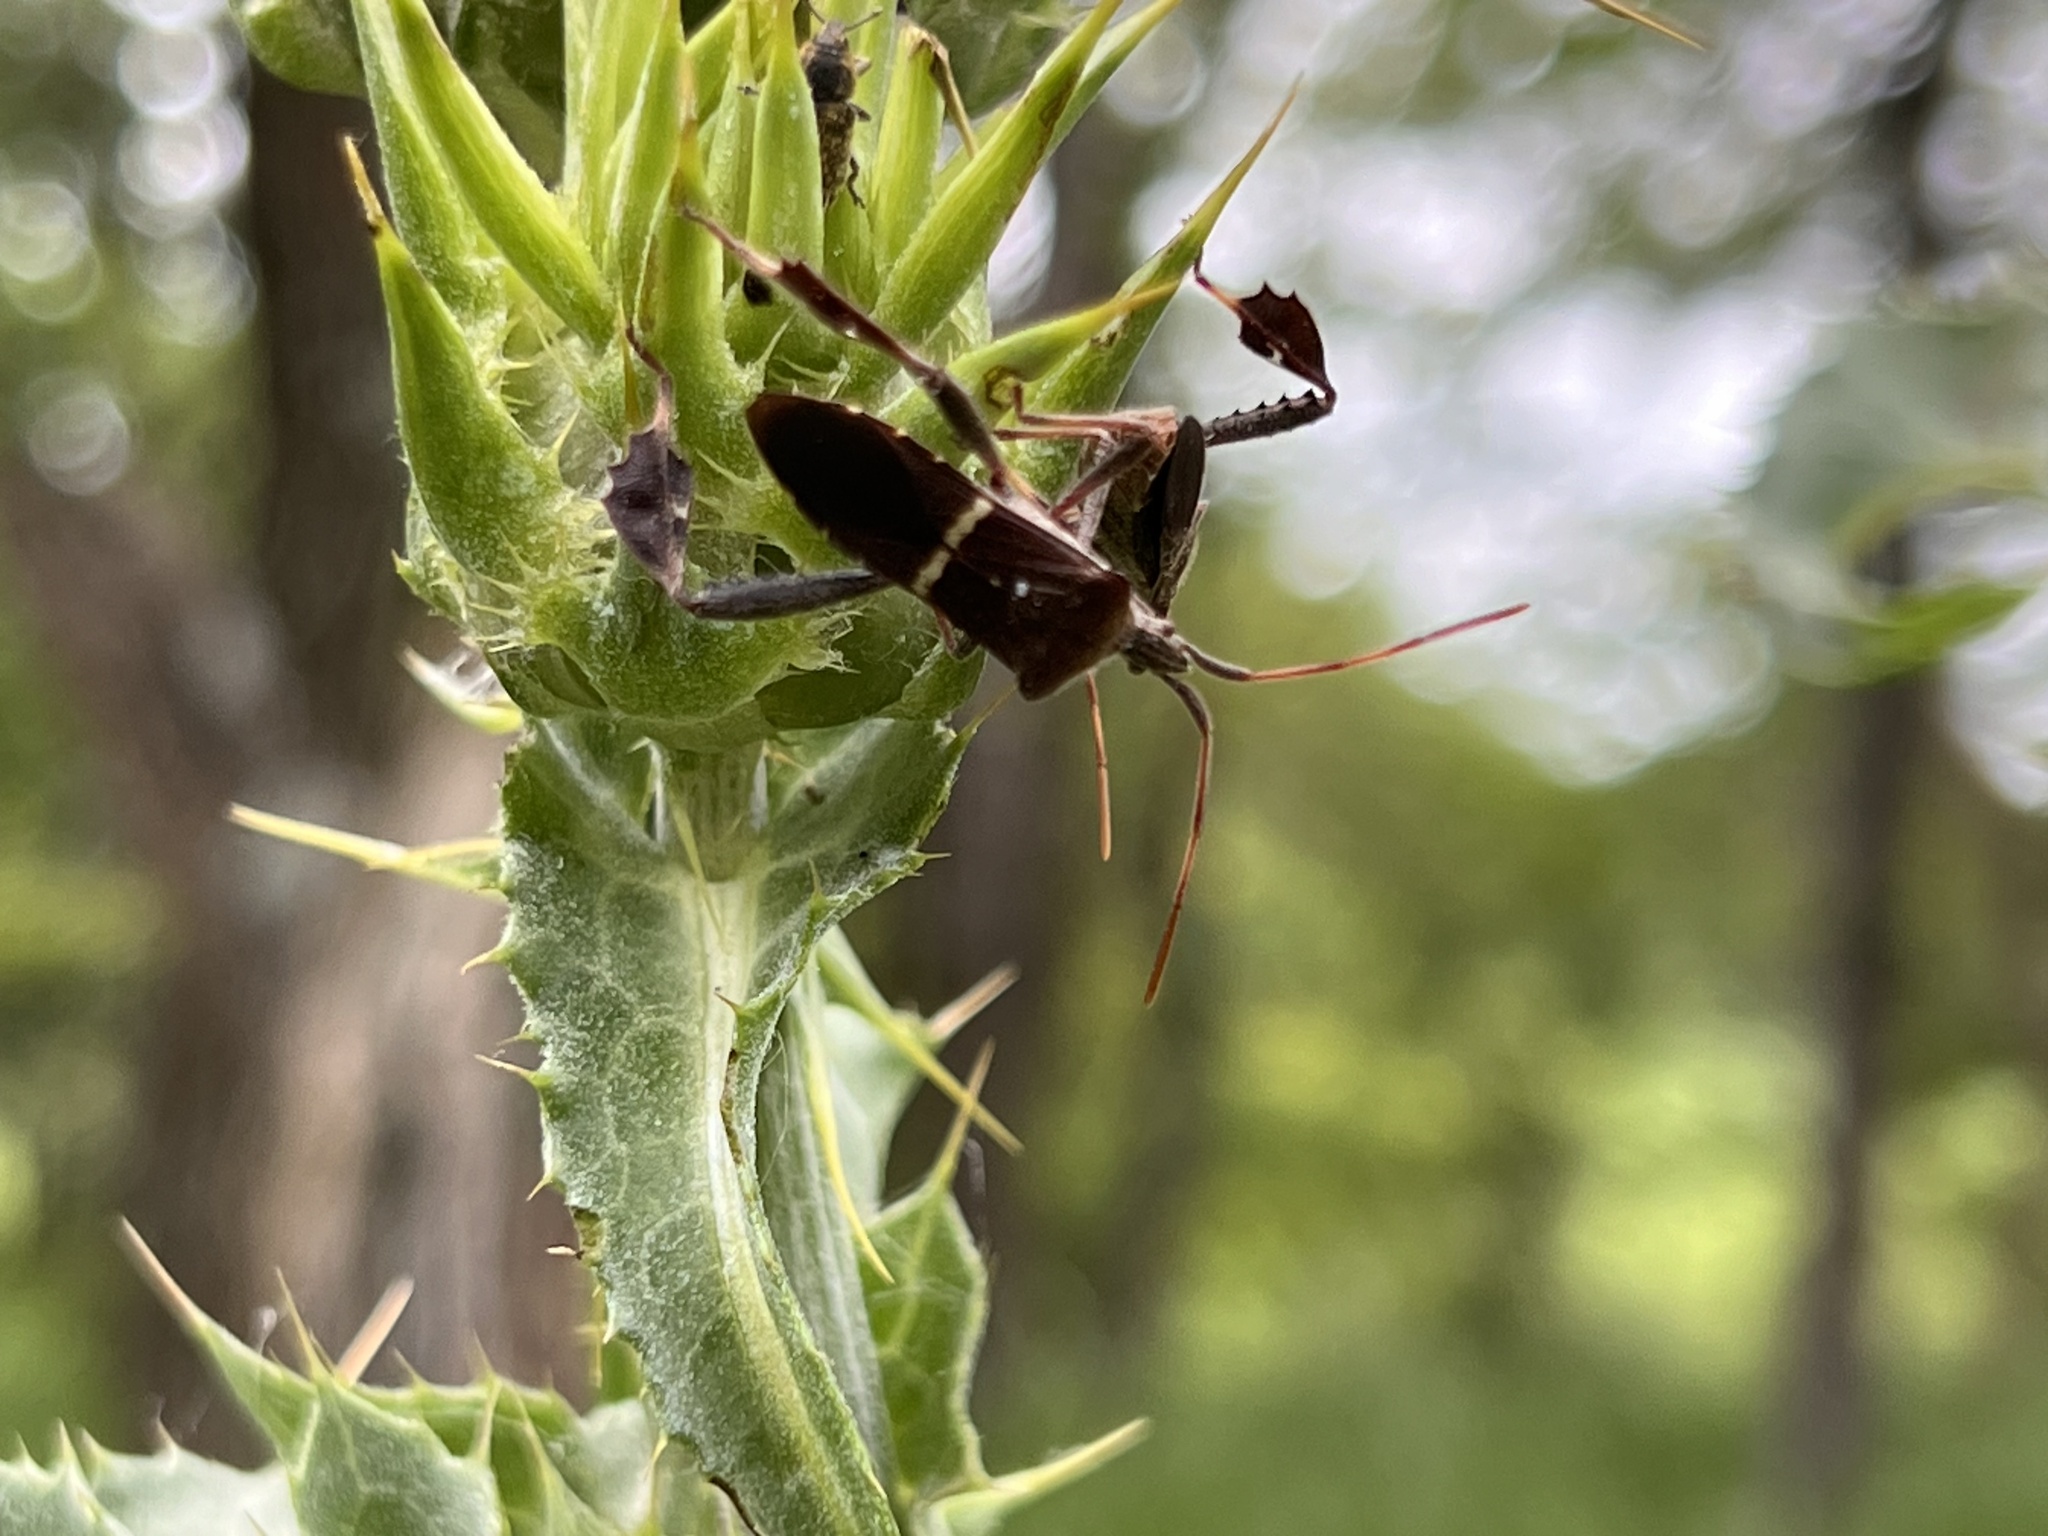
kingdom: Animalia
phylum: Arthropoda
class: Insecta
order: Hemiptera
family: Coreidae
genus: Leptoglossus
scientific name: Leptoglossus phyllopus
